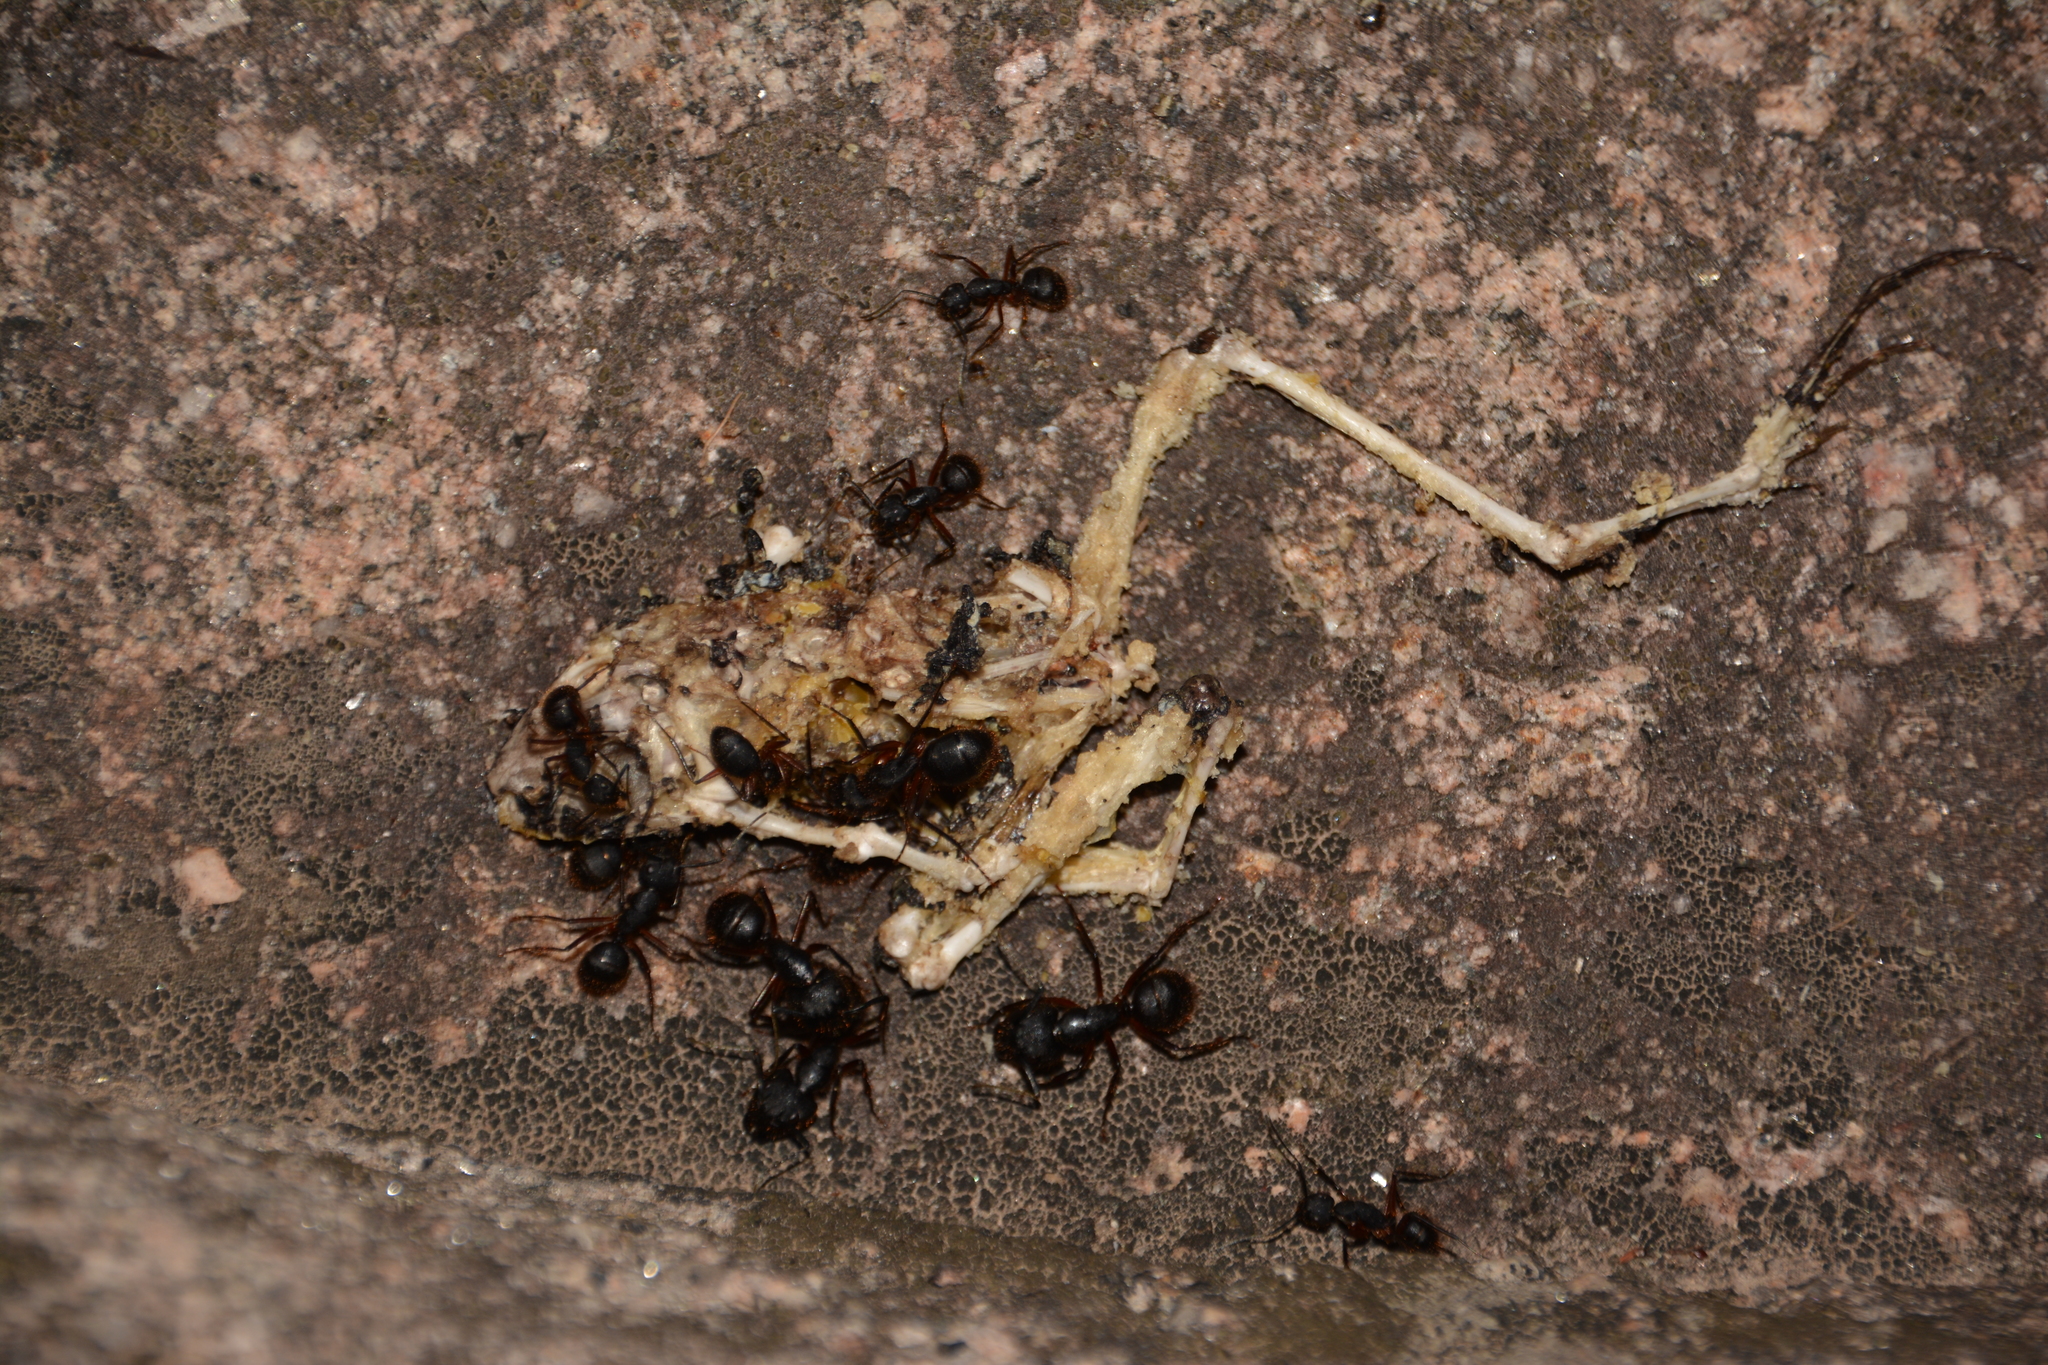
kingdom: Animalia
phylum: Chordata
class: Amphibia
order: Anura
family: Hylidae
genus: Boana
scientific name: Boana cordobae
